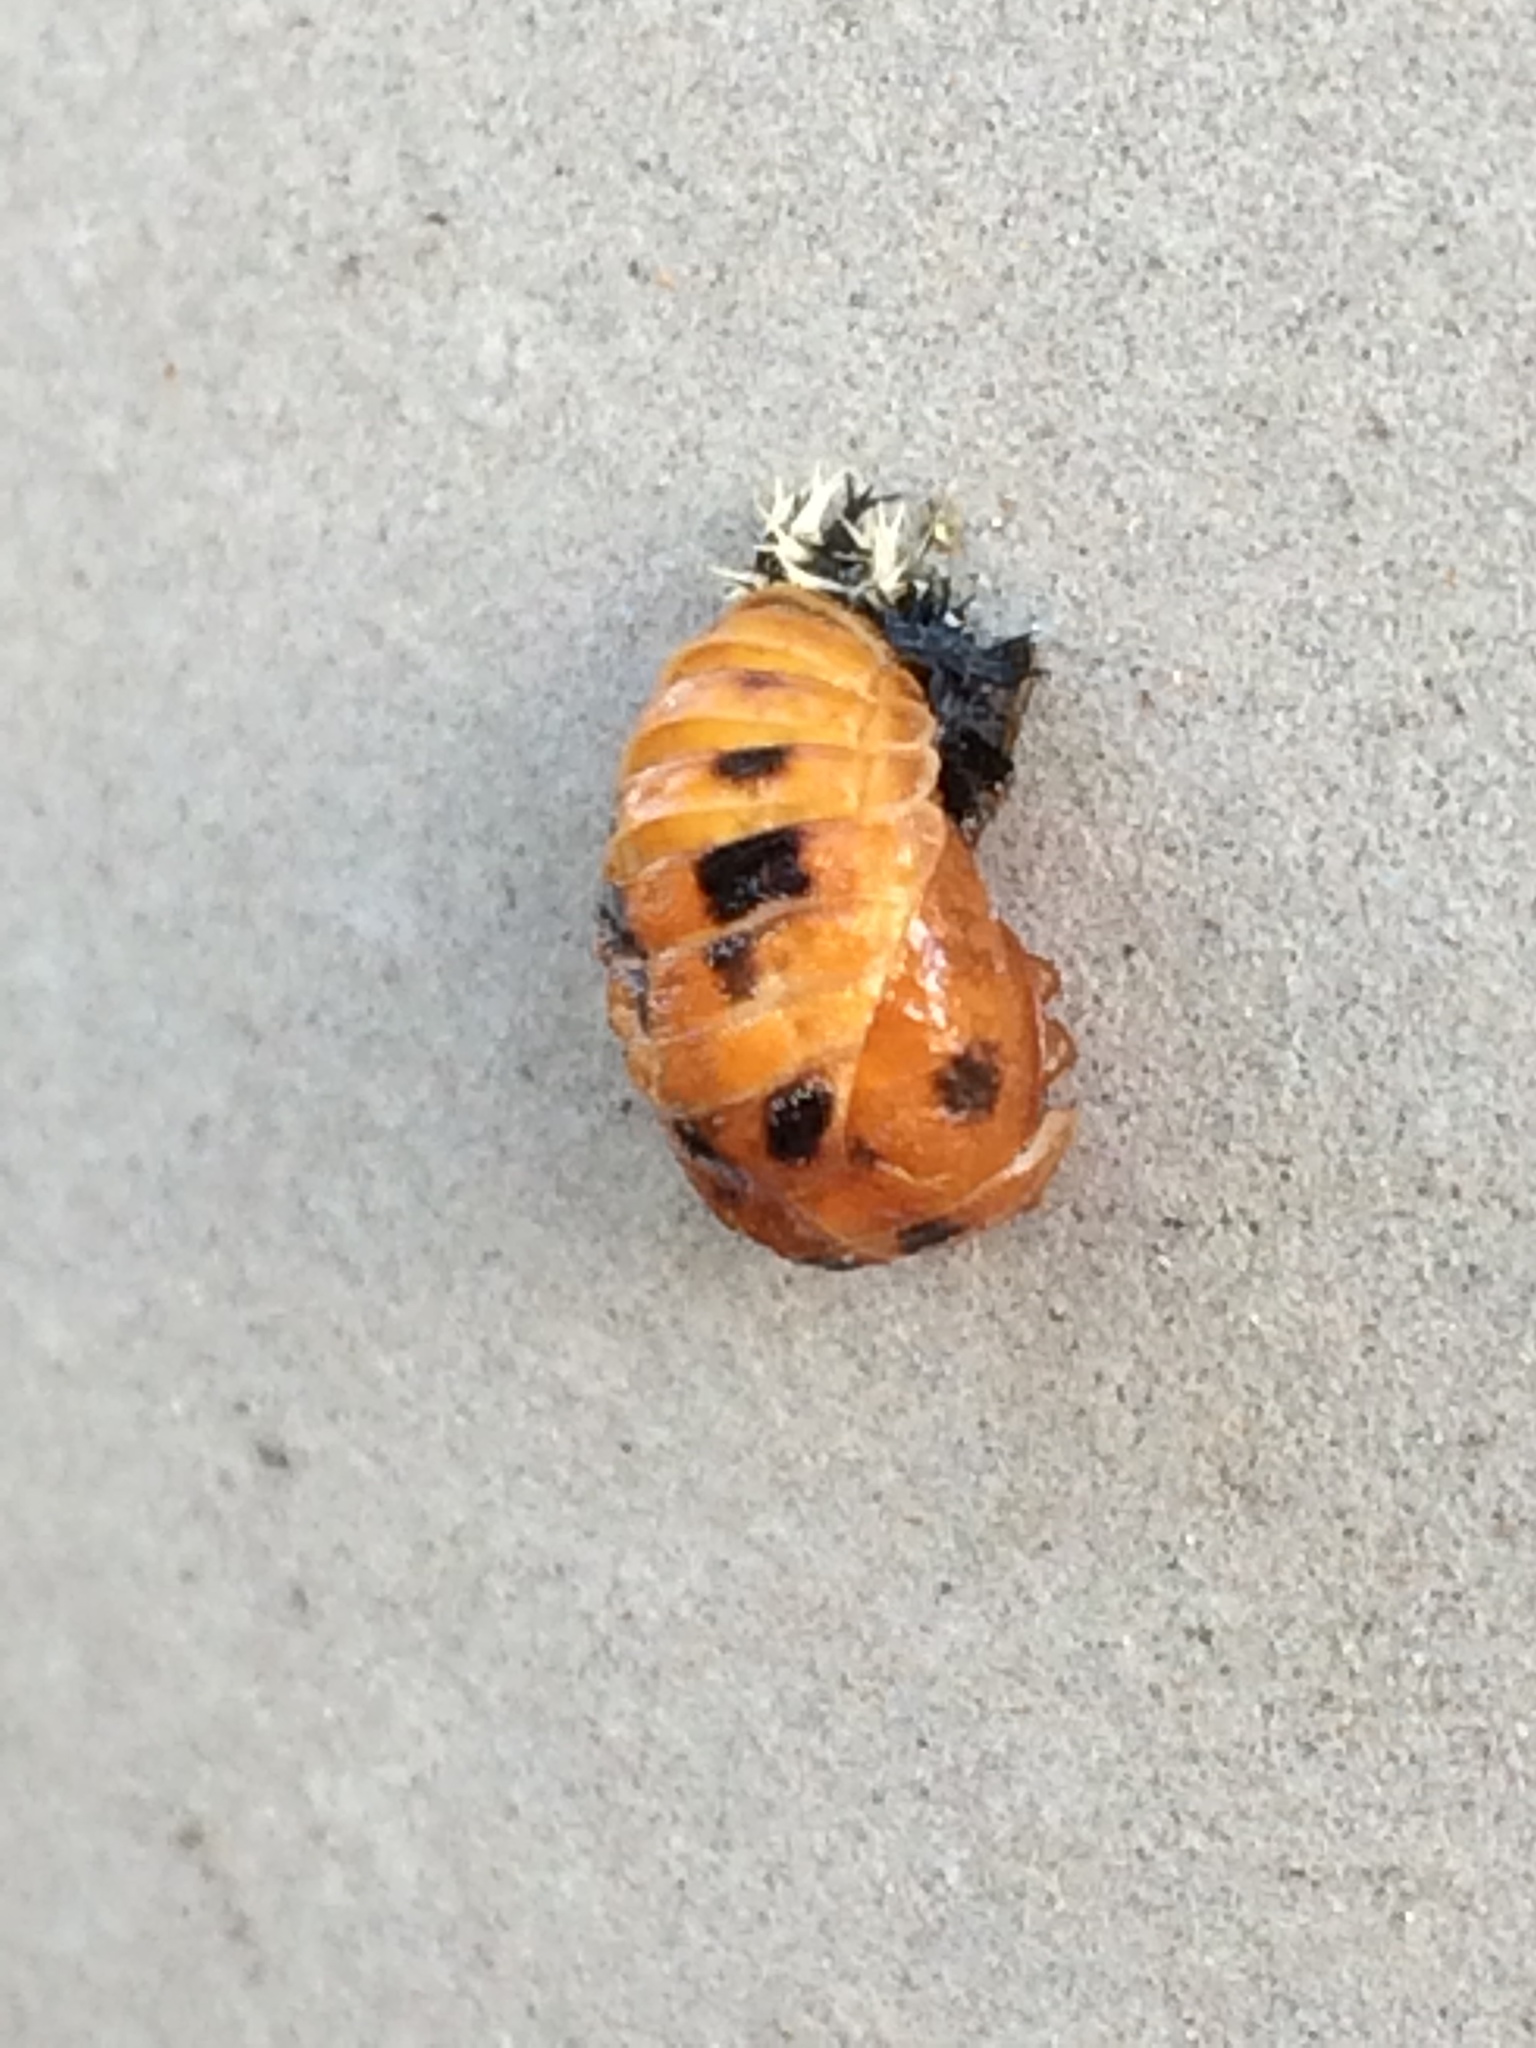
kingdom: Animalia
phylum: Arthropoda
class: Insecta
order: Coleoptera
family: Coccinellidae
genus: Harmonia
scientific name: Harmonia axyridis
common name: Harlequin ladybird
